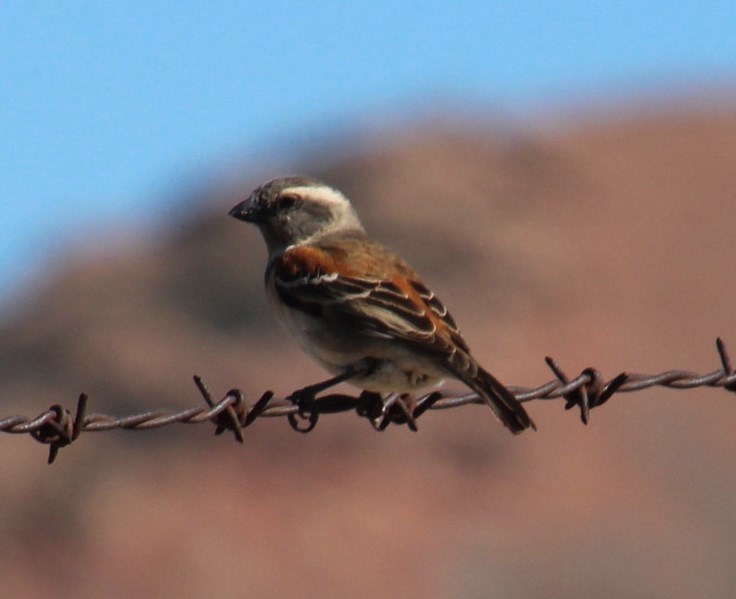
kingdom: Animalia
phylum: Chordata
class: Aves
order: Passeriformes
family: Passeridae
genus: Passer
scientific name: Passer melanurus
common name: Cape sparrow
